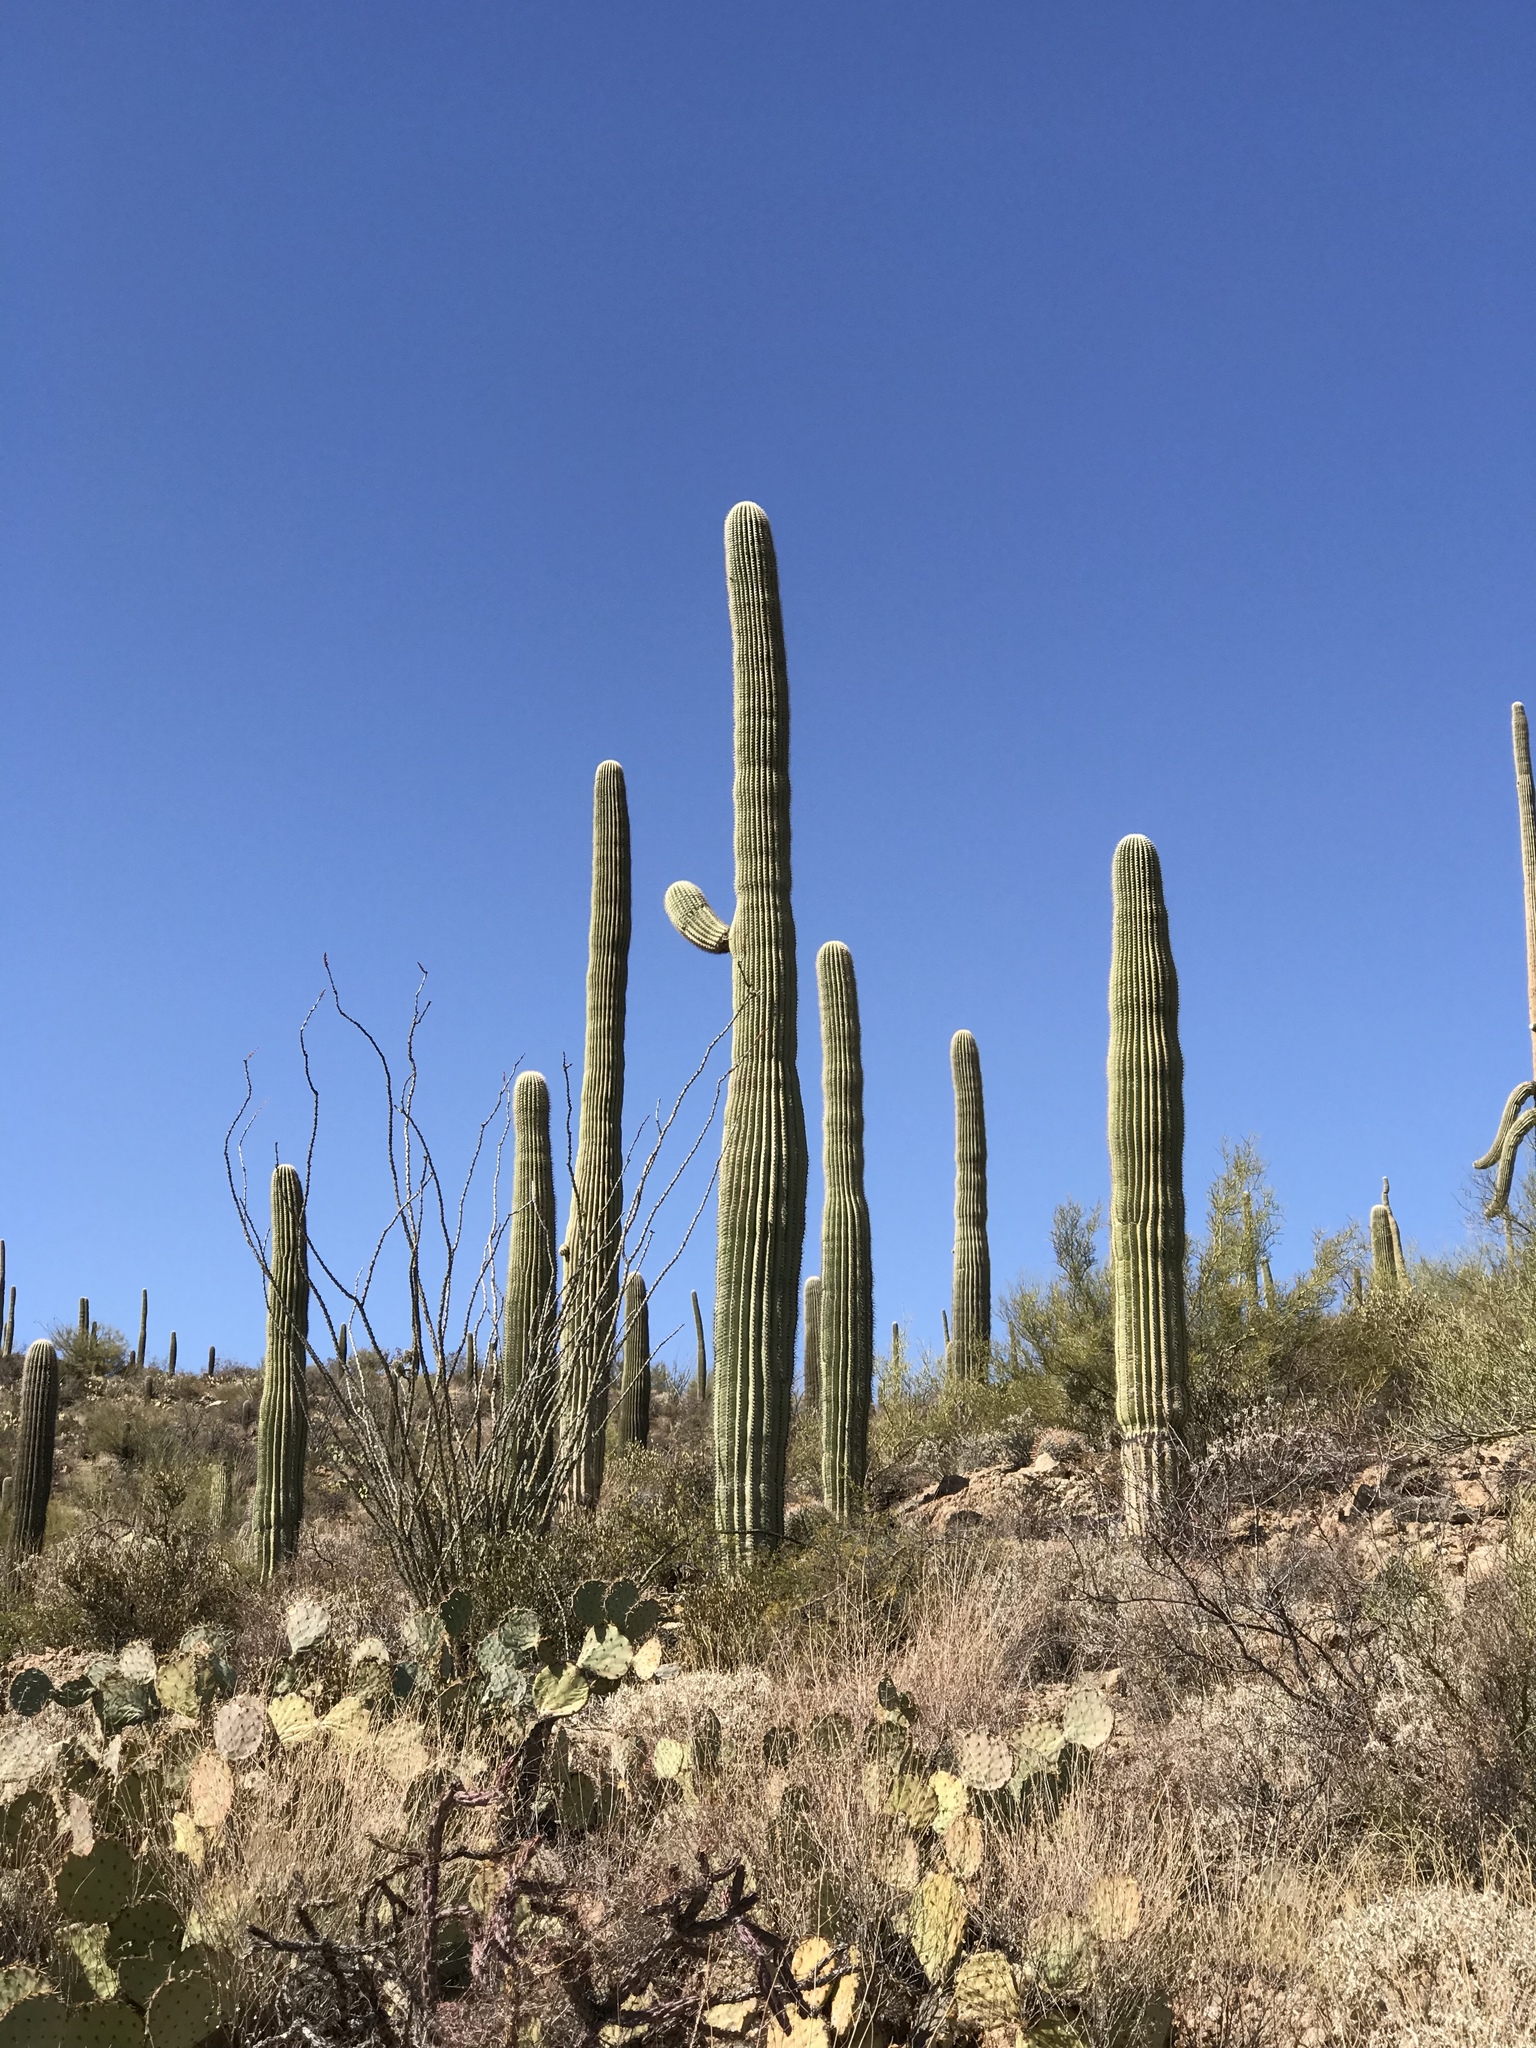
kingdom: Plantae
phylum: Tracheophyta
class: Magnoliopsida
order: Caryophyllales
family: Cactaceae
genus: Carnegiea
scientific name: Carnegiea gigantea
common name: Saguaro
